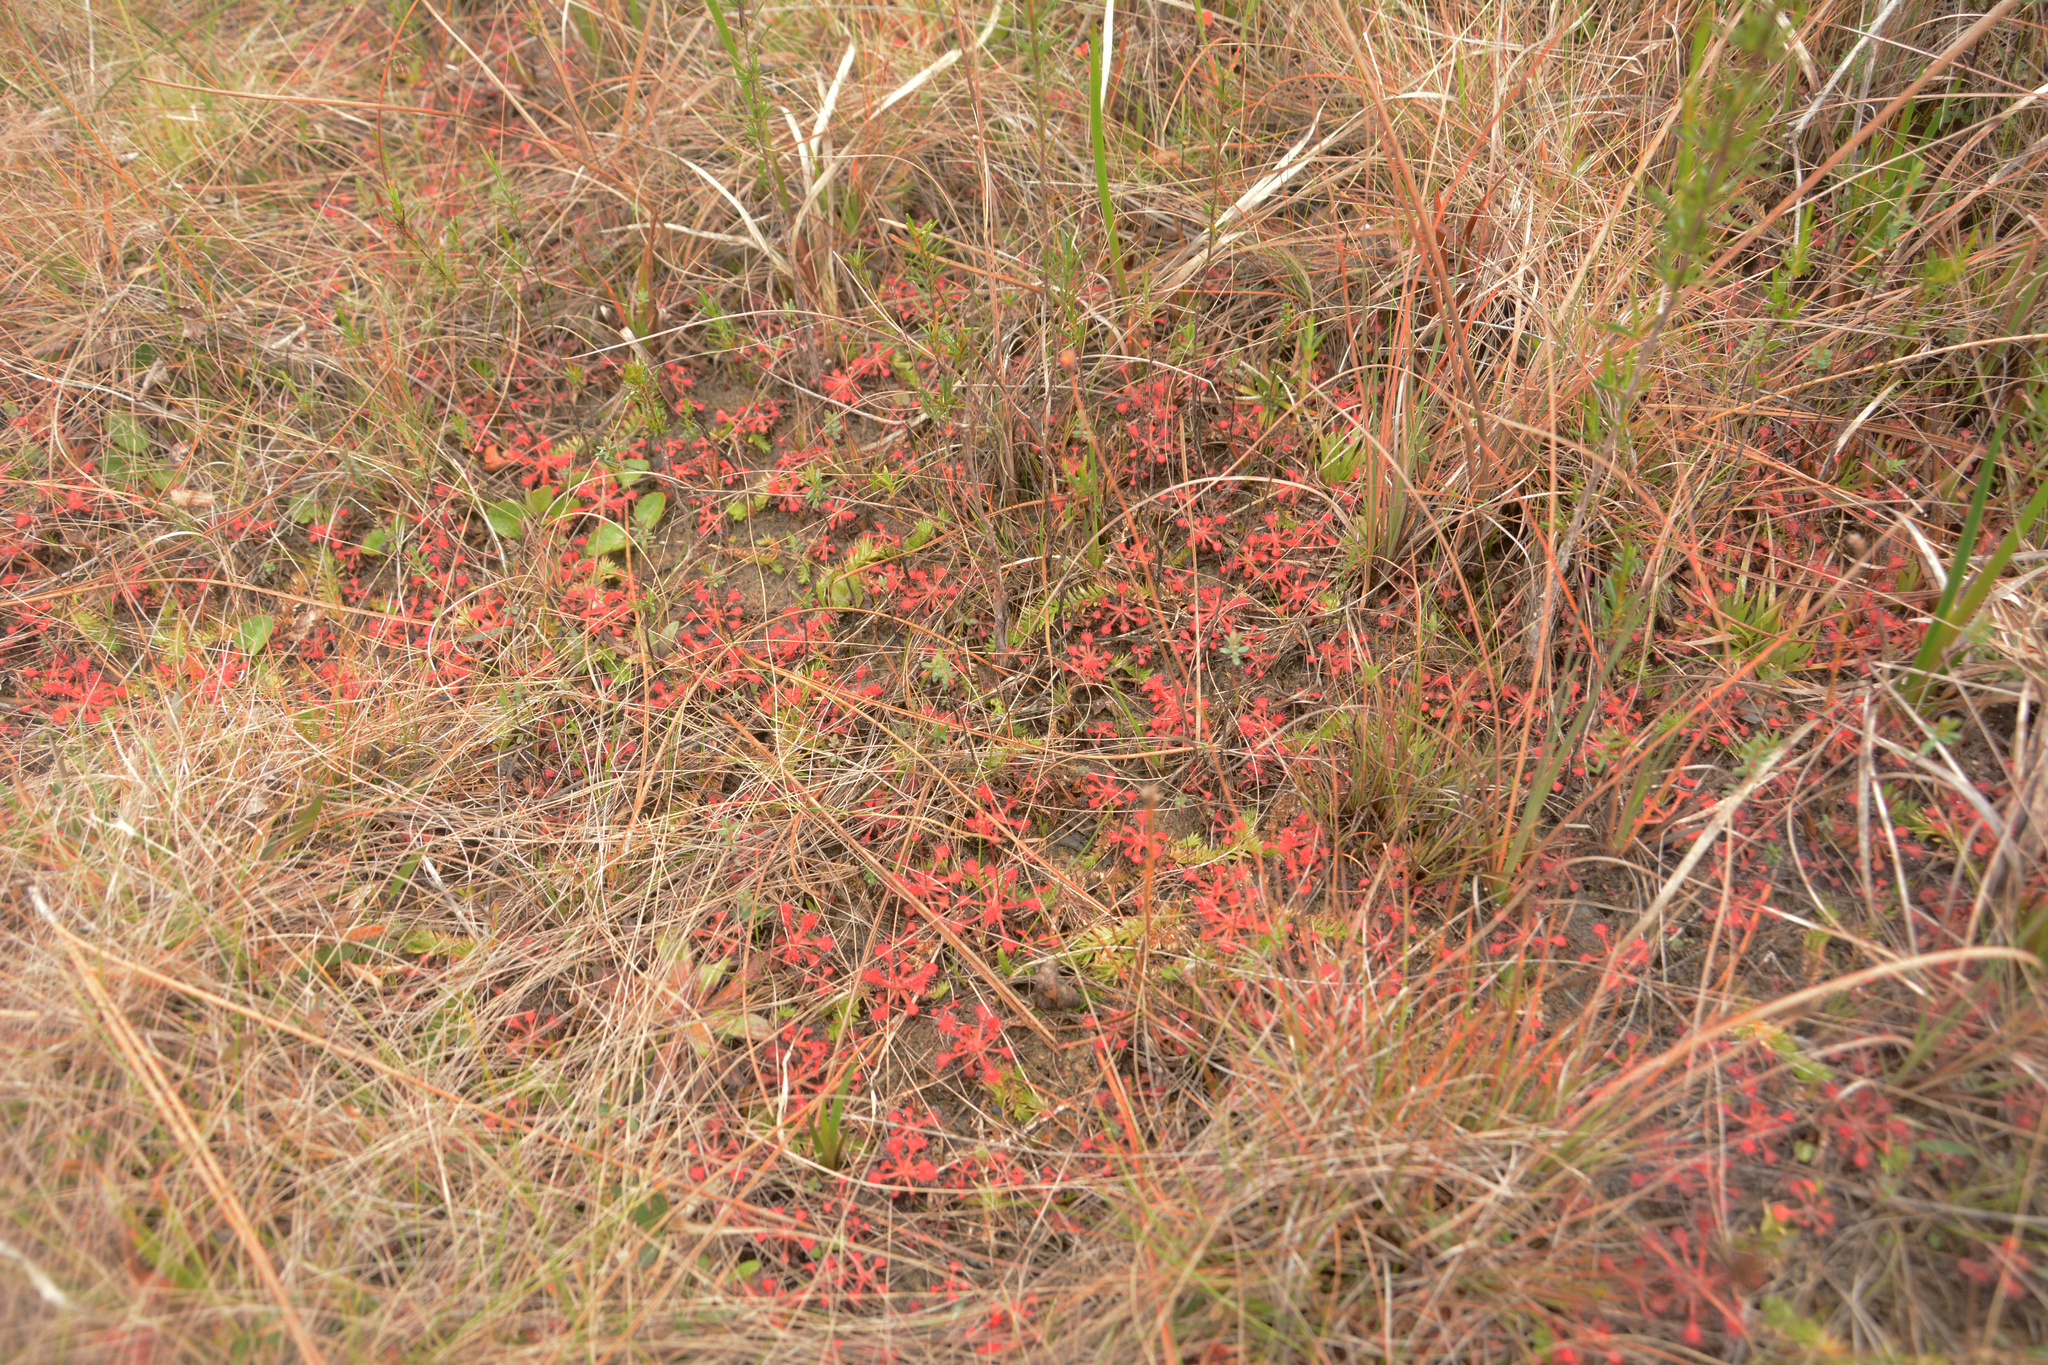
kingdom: Plantae
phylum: Tracheophyta
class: Magnoliopsida
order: Caryophyllales
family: Droseraceae
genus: Drosera
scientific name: Drosera capillaris
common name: Pink sundew
